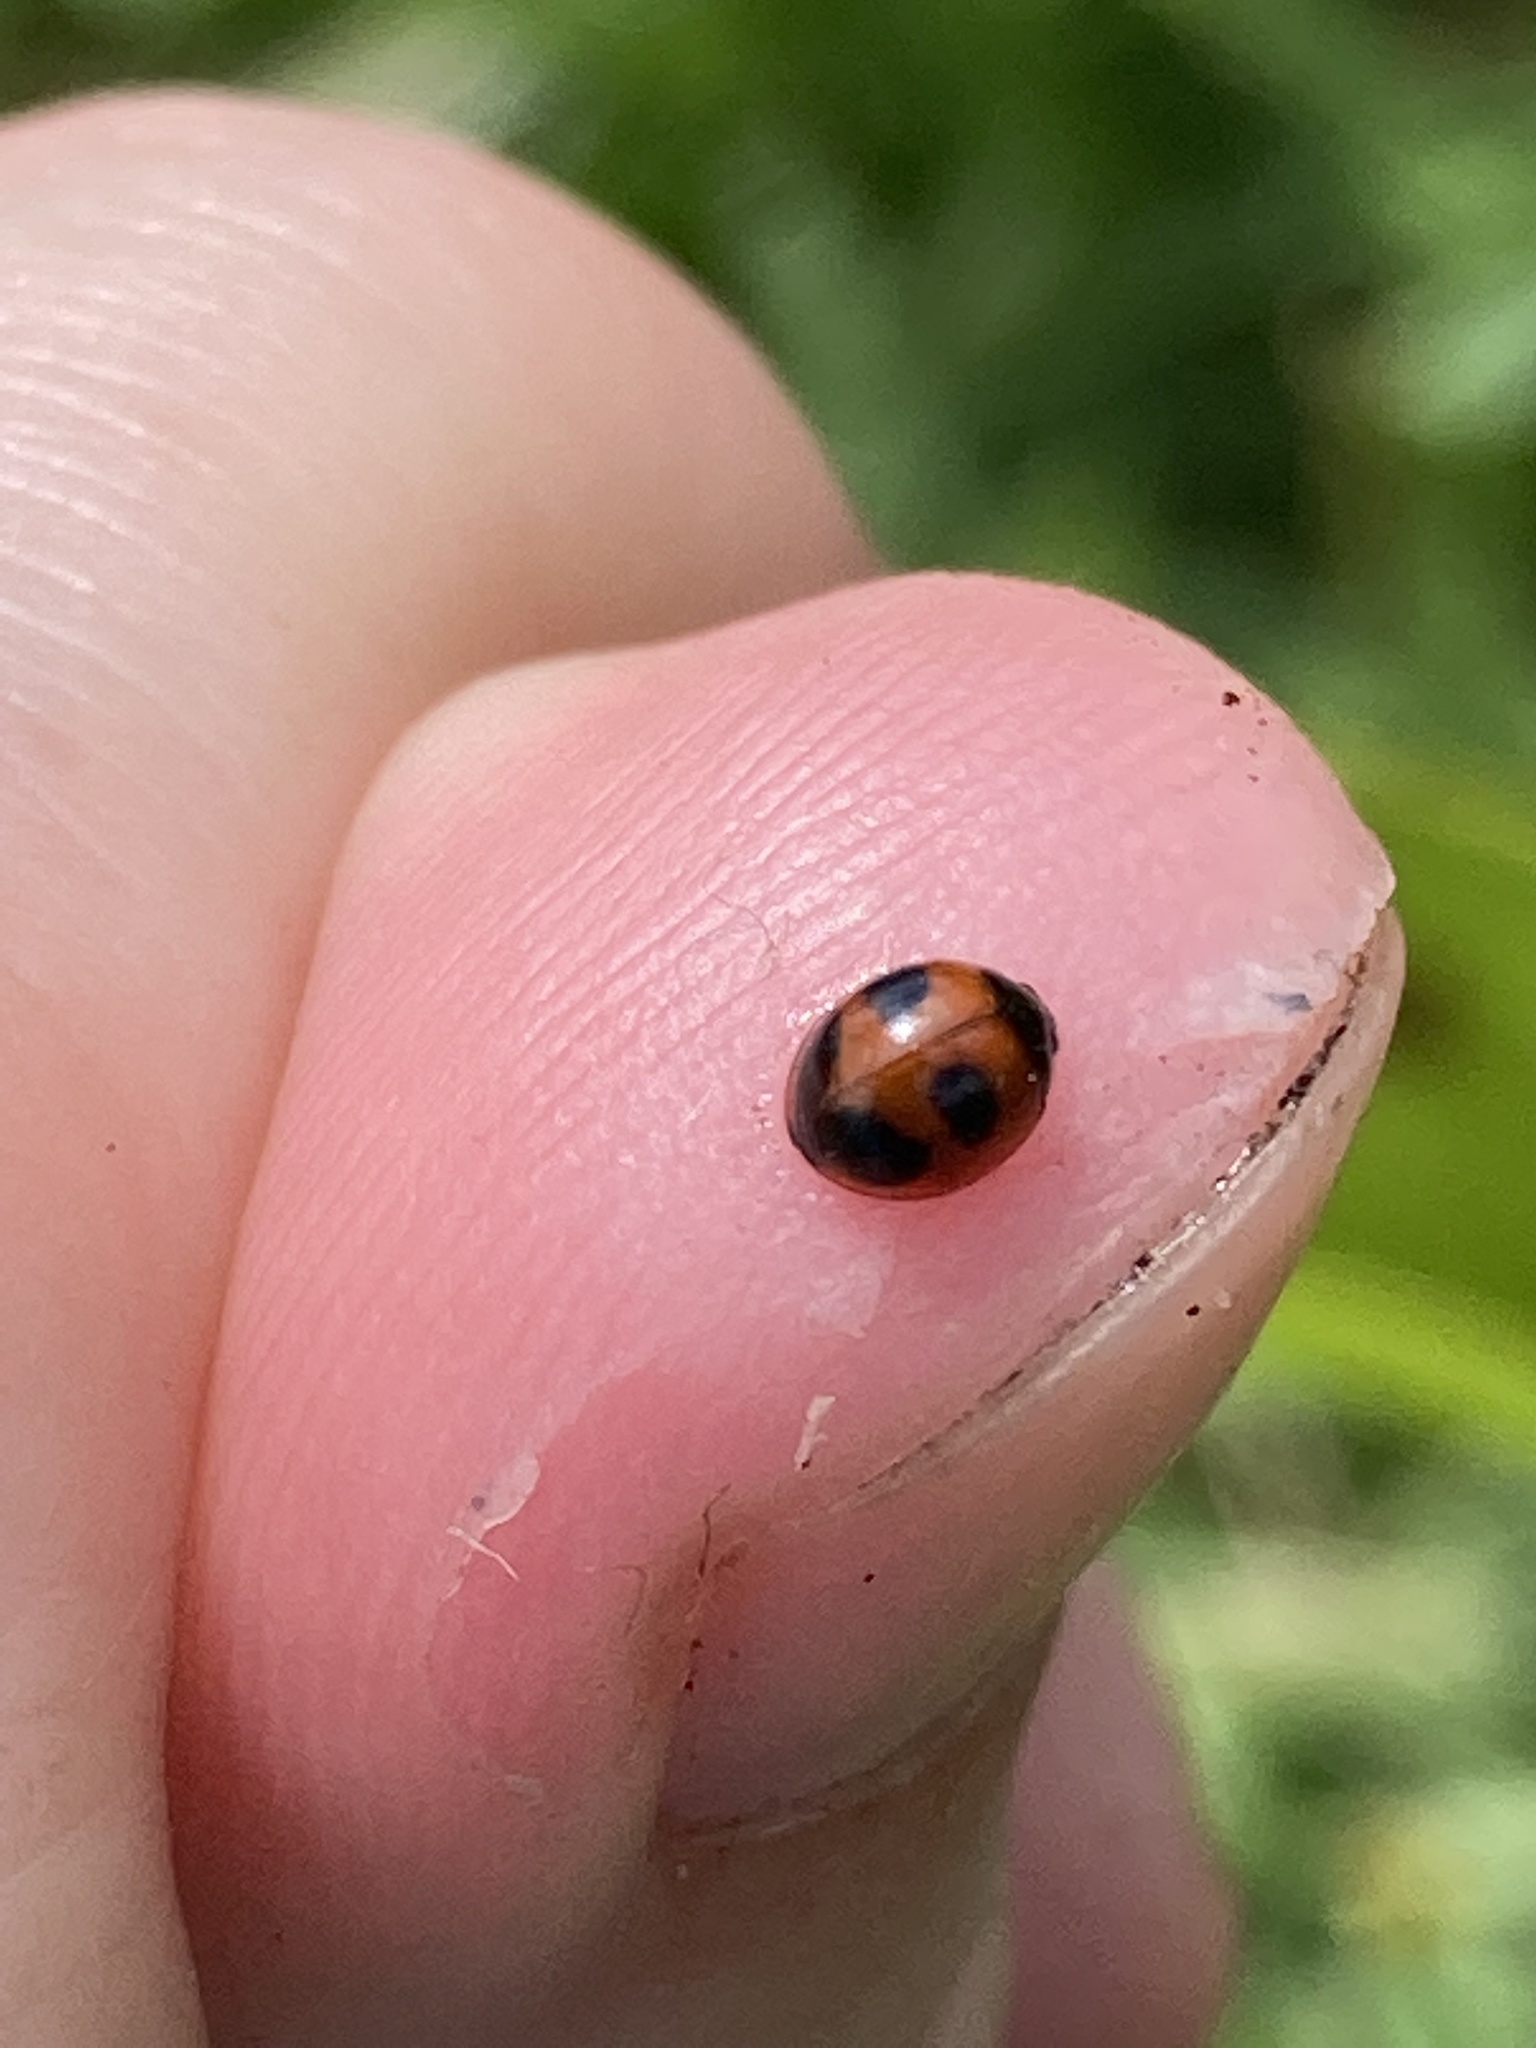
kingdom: Animalia
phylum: Arthropoda
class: Insecta
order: Coleoptera
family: Coccinellidae
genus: Exochomus
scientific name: Exochomus childreni
